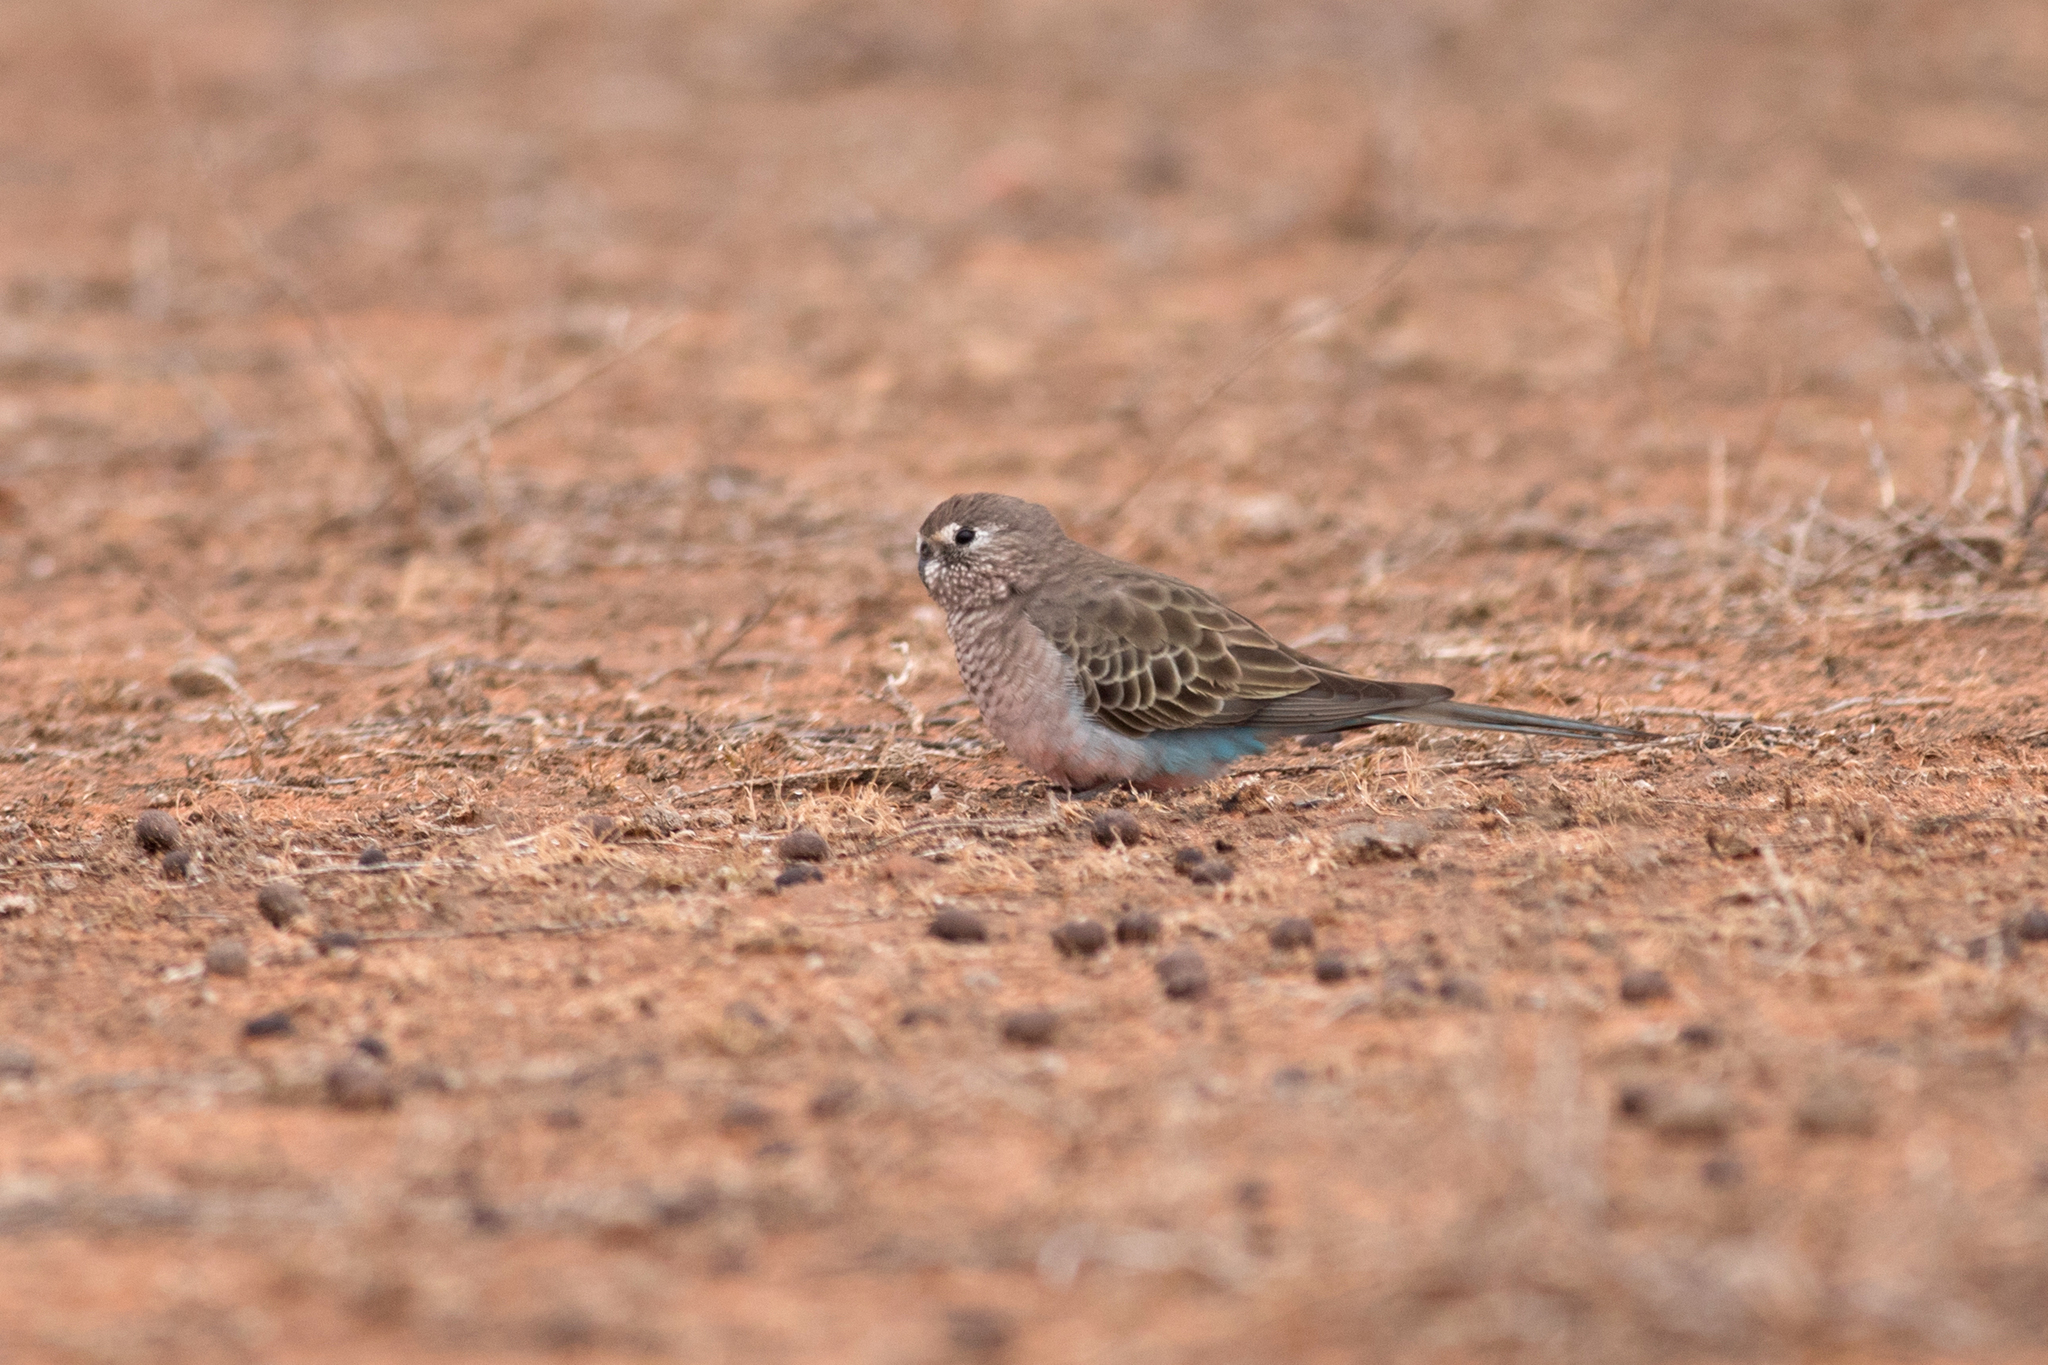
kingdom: Animalia
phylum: Chordata
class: Aves
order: Psittaciformes
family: Psittacidae
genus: Neopsephotus
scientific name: Neopsephotus bourkii
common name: Bourke's parrot
